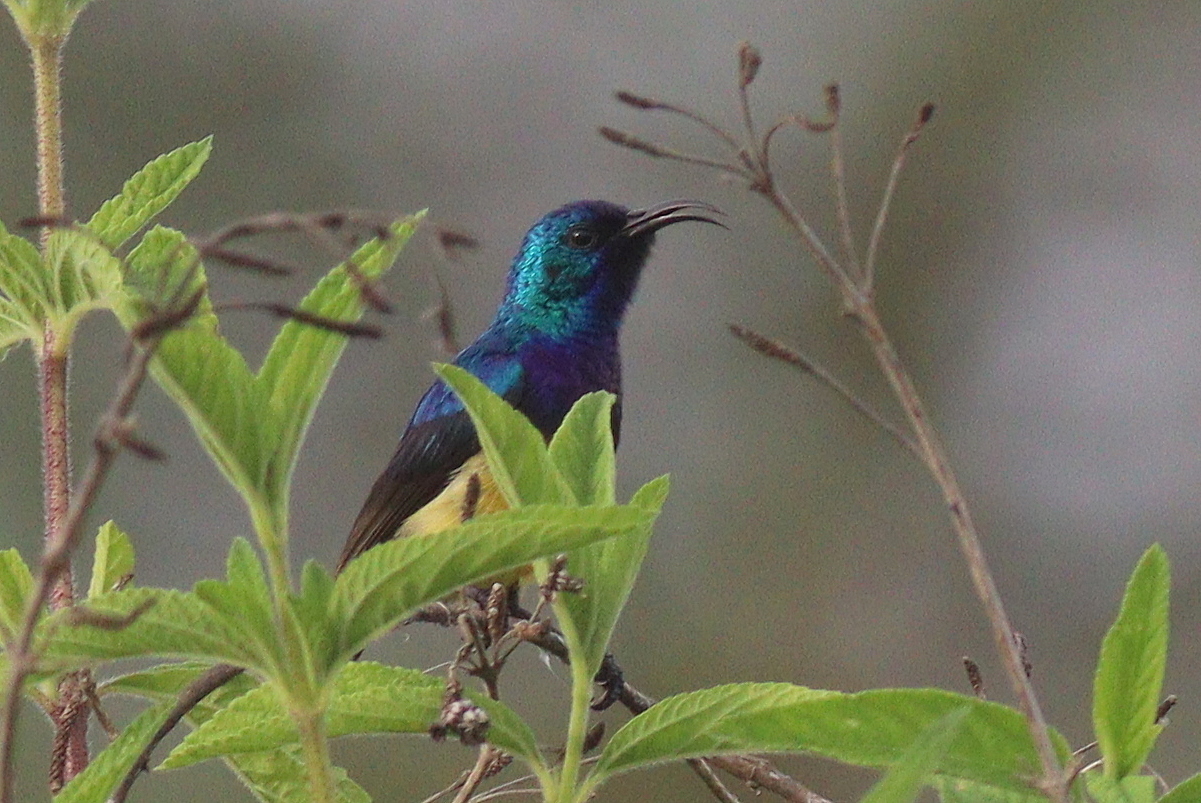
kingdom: Animalia
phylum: Chordata
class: Aves
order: Passeriformes
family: Nectariniidae
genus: Cinnyris
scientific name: Cinnyris venustus
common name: Variable sunbird
